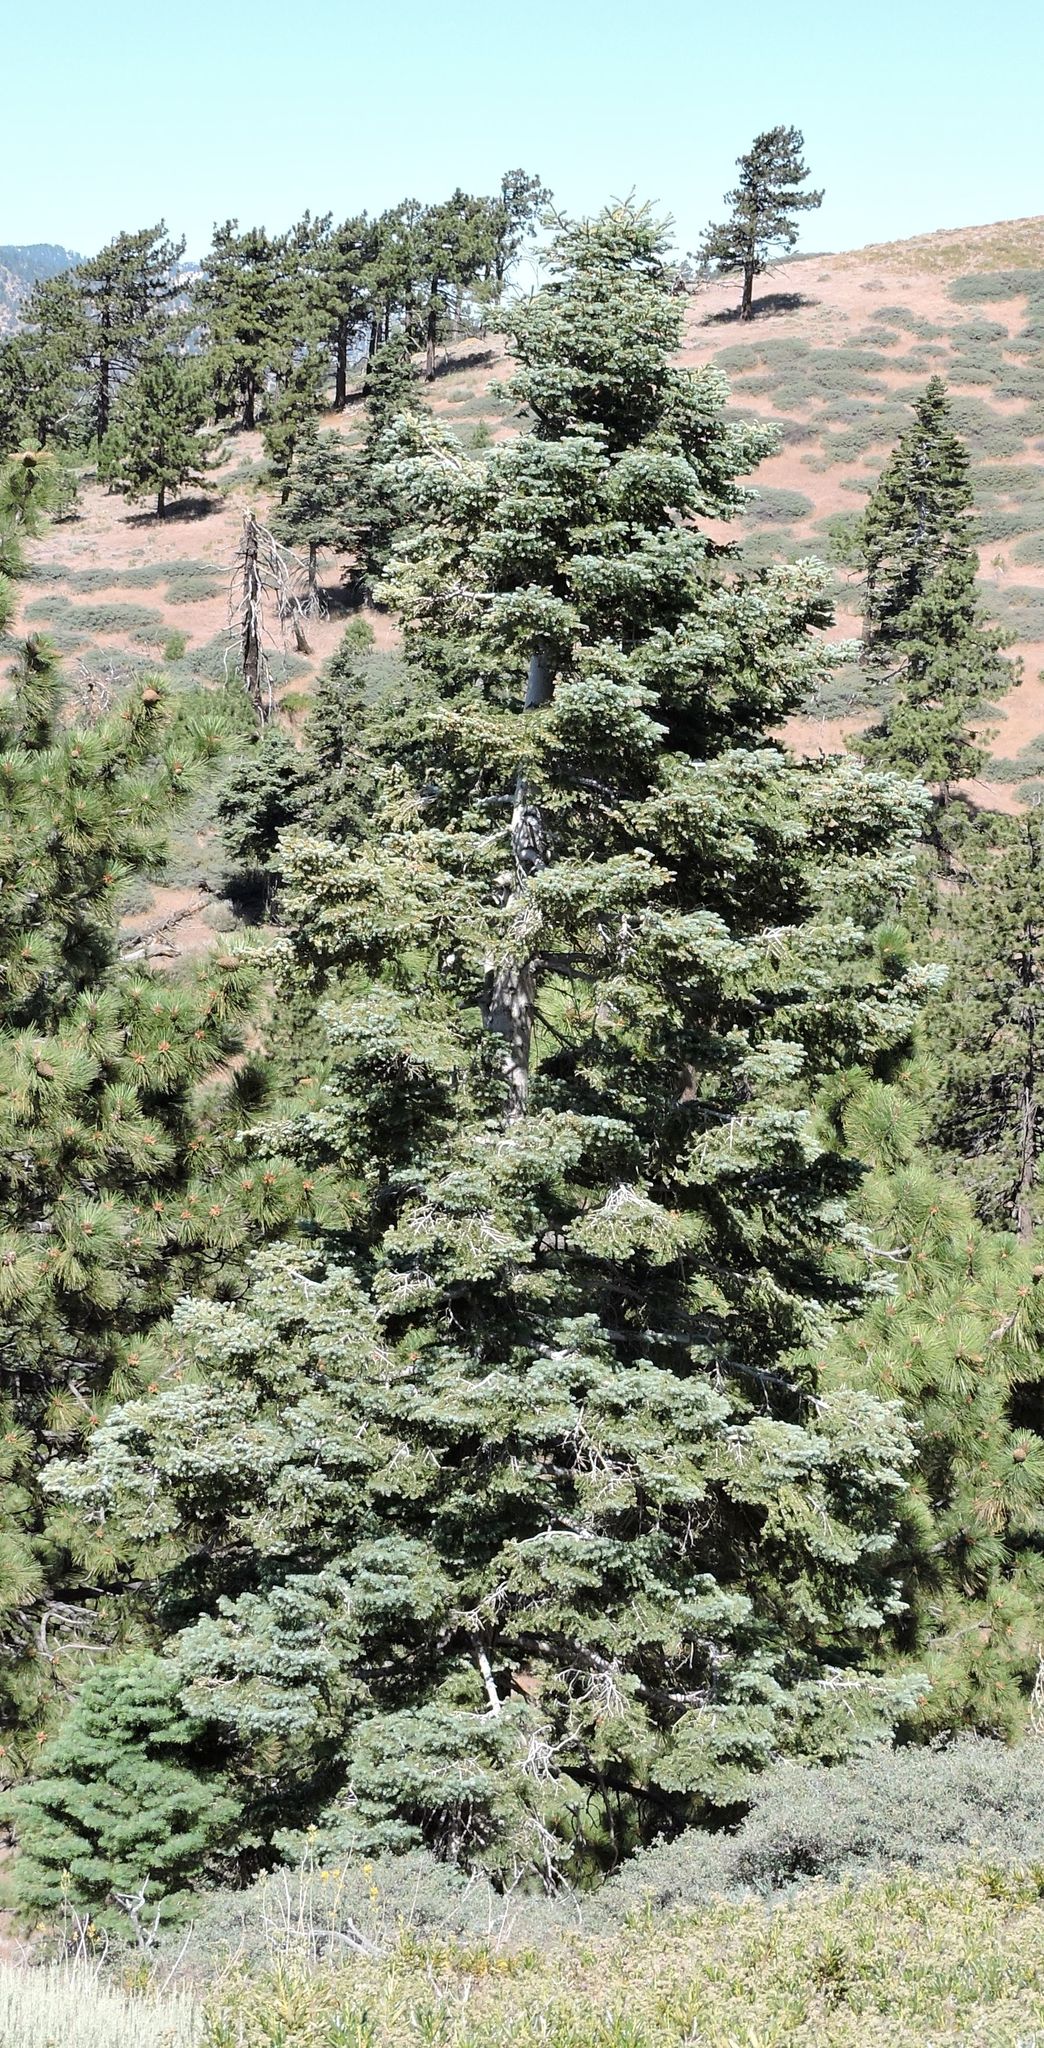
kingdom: Plantae
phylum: Tracheophyta
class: Pinopsida
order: Pinales
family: Pinaceae
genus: Abies
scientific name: Abies concolor
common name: Colorado fir
